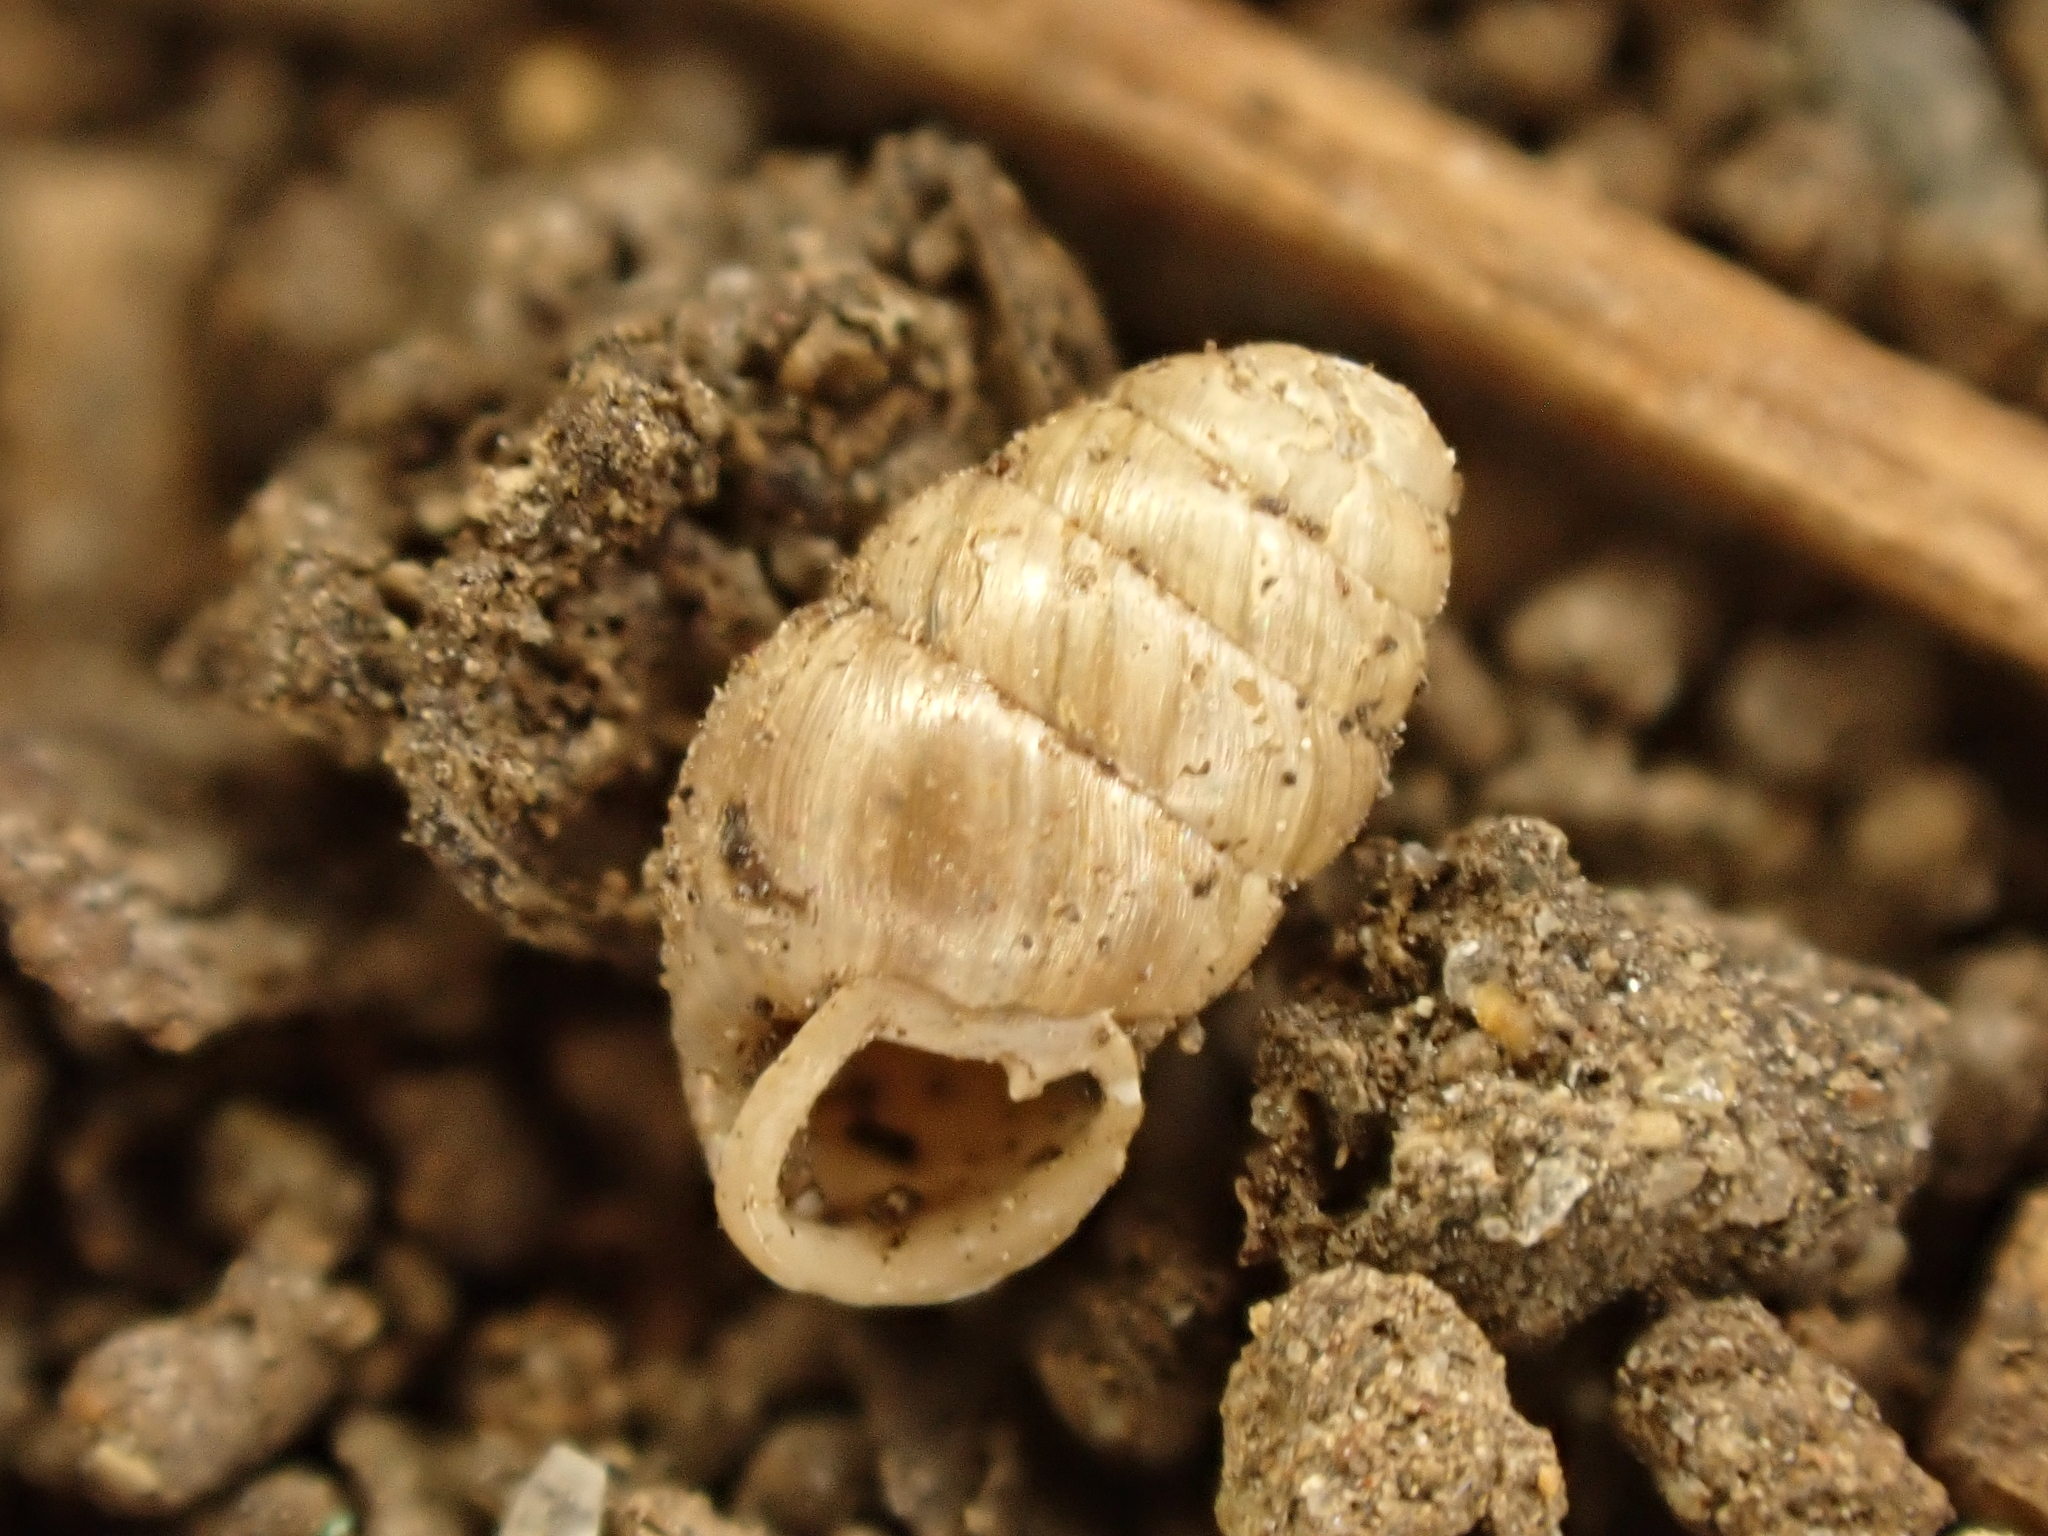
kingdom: Animalia
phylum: Mollusca
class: Gastropoda
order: Stylommatophora
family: Lauriidae
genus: Lauria
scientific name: Lauria cylindracea
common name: Common chrysalis snail
